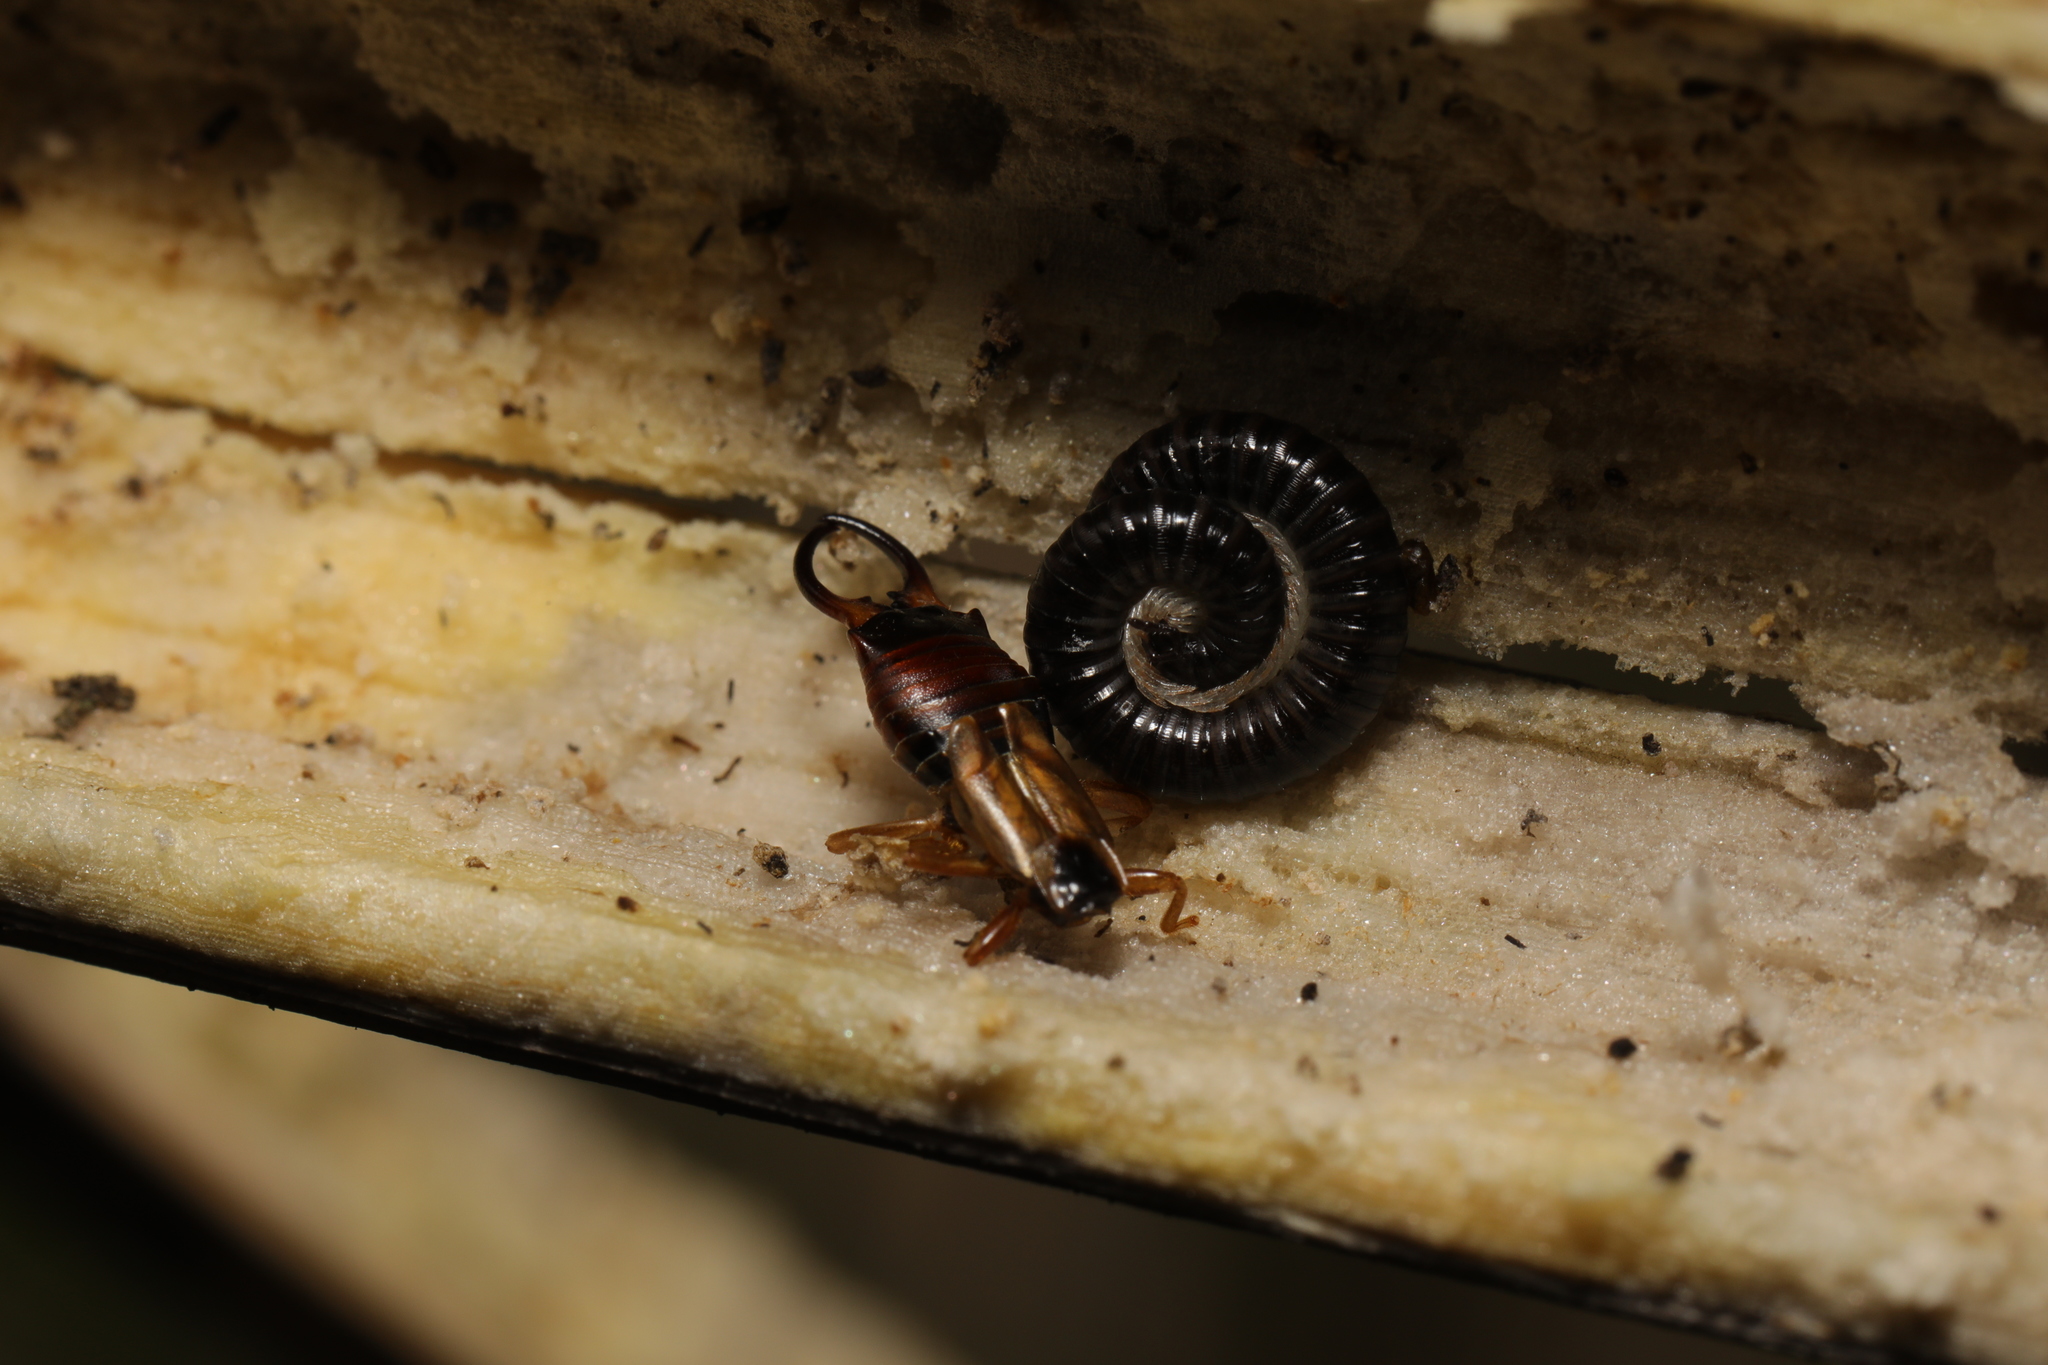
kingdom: Animalia
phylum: Arthropoda
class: Insecta
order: Dermaptera
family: Forficulidae
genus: Forficula
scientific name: Forficula
